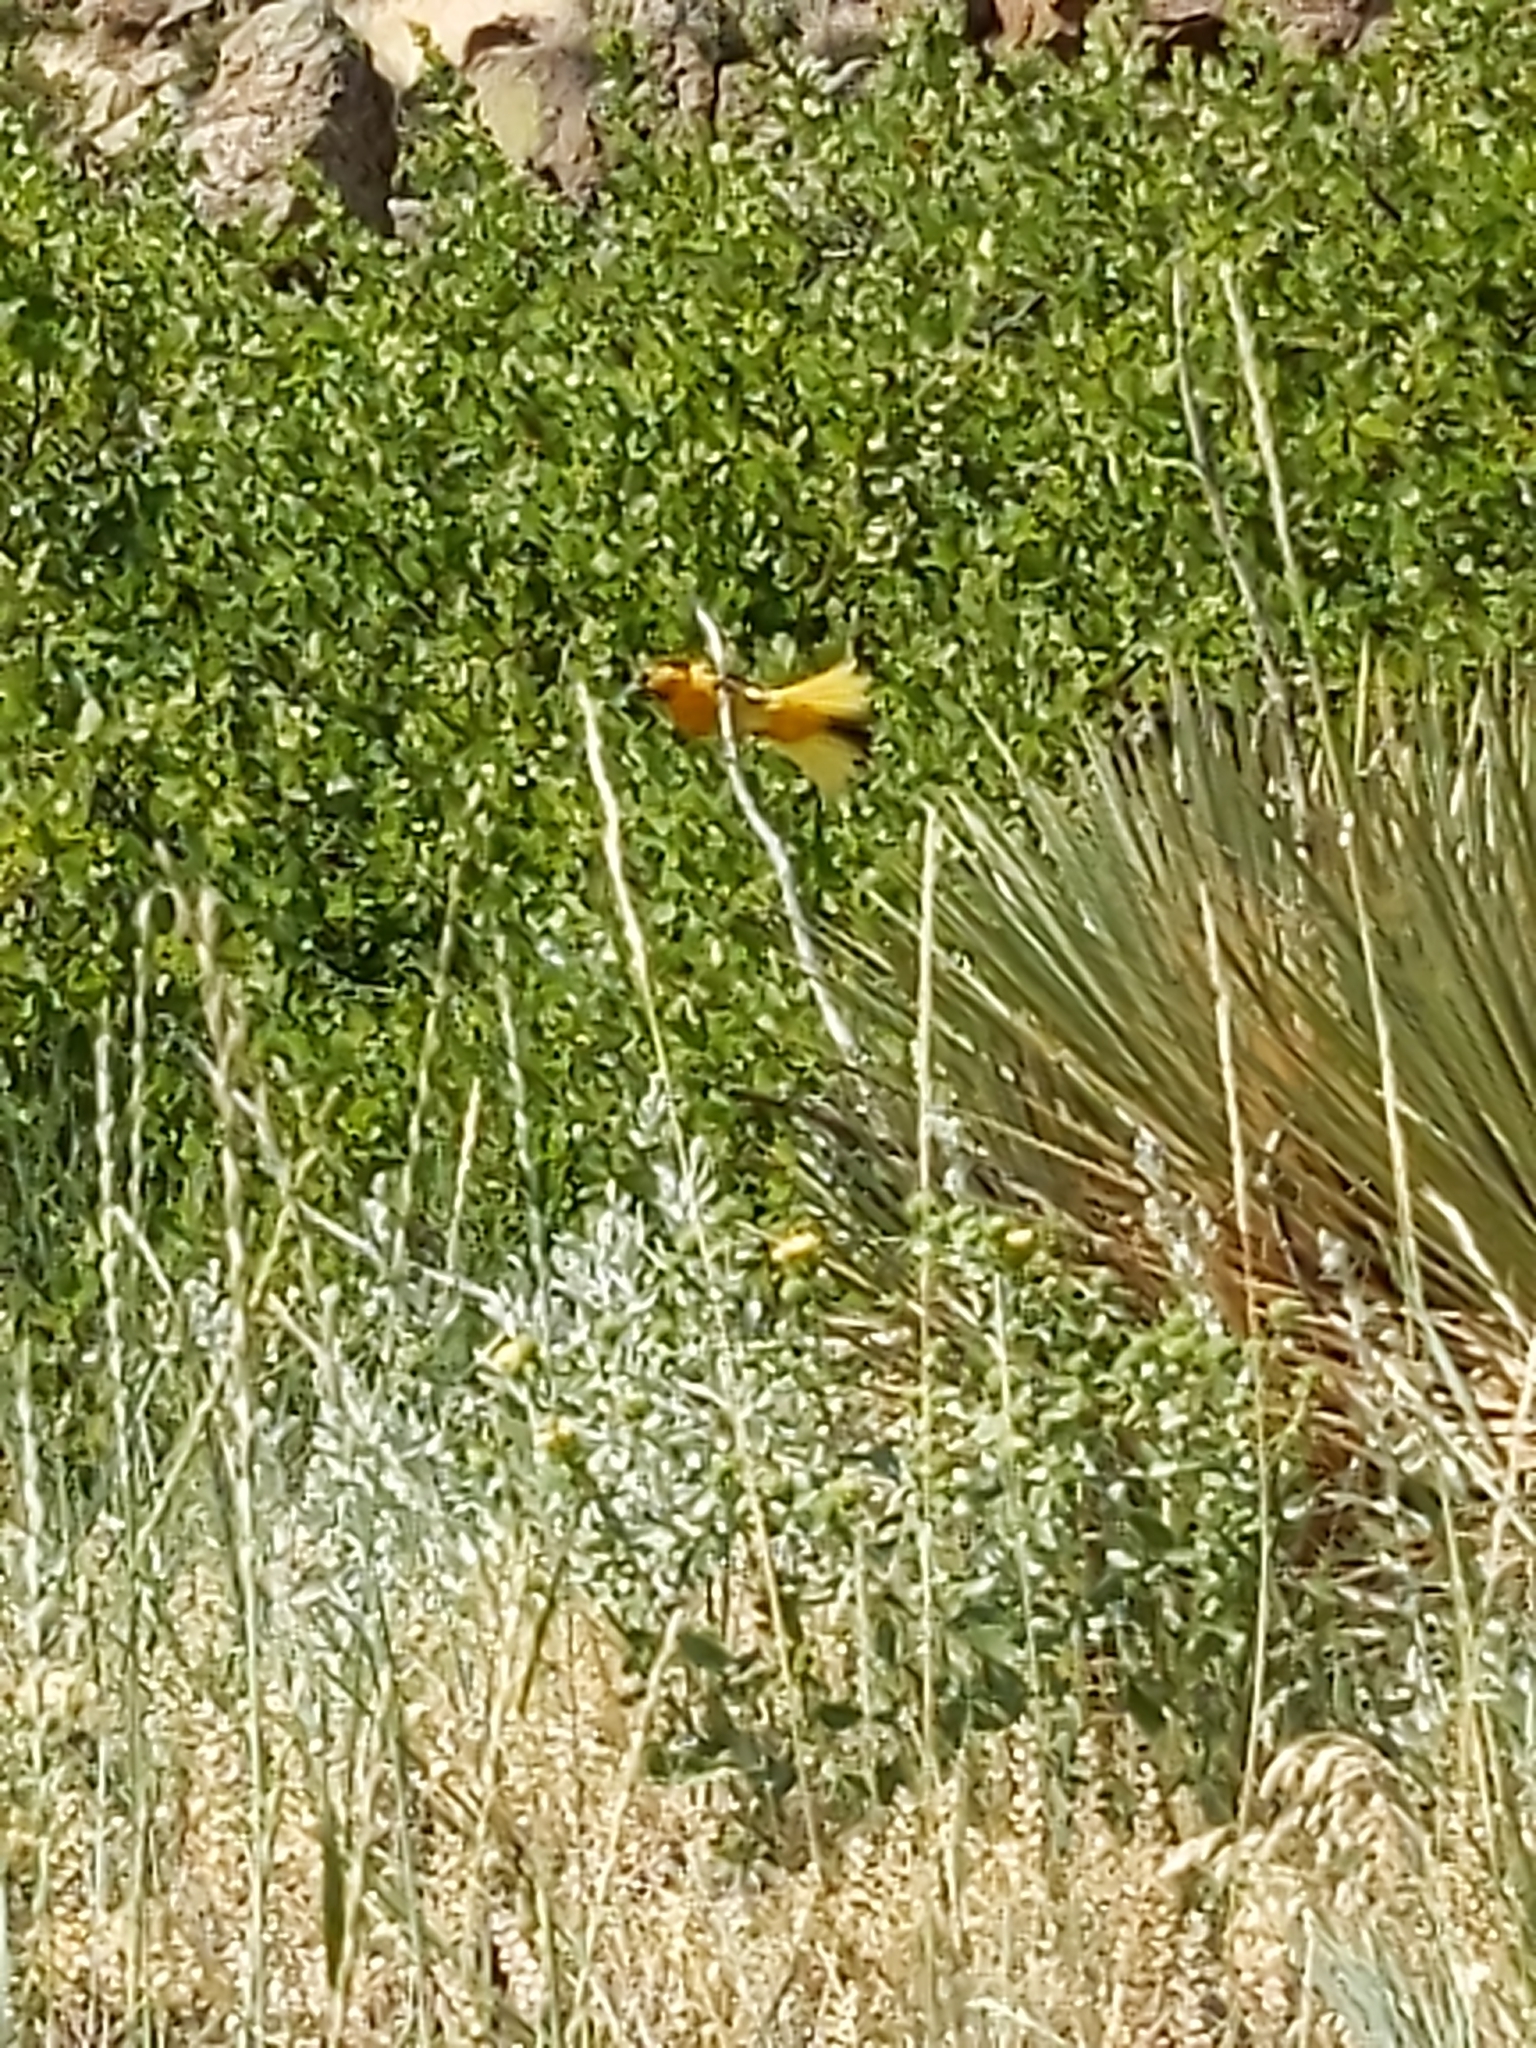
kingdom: Animalia
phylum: Chordata
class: Aves
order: Passeriformes
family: Icteridae
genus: Icterus
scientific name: Icterus bullockii
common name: Bullock's oriole
